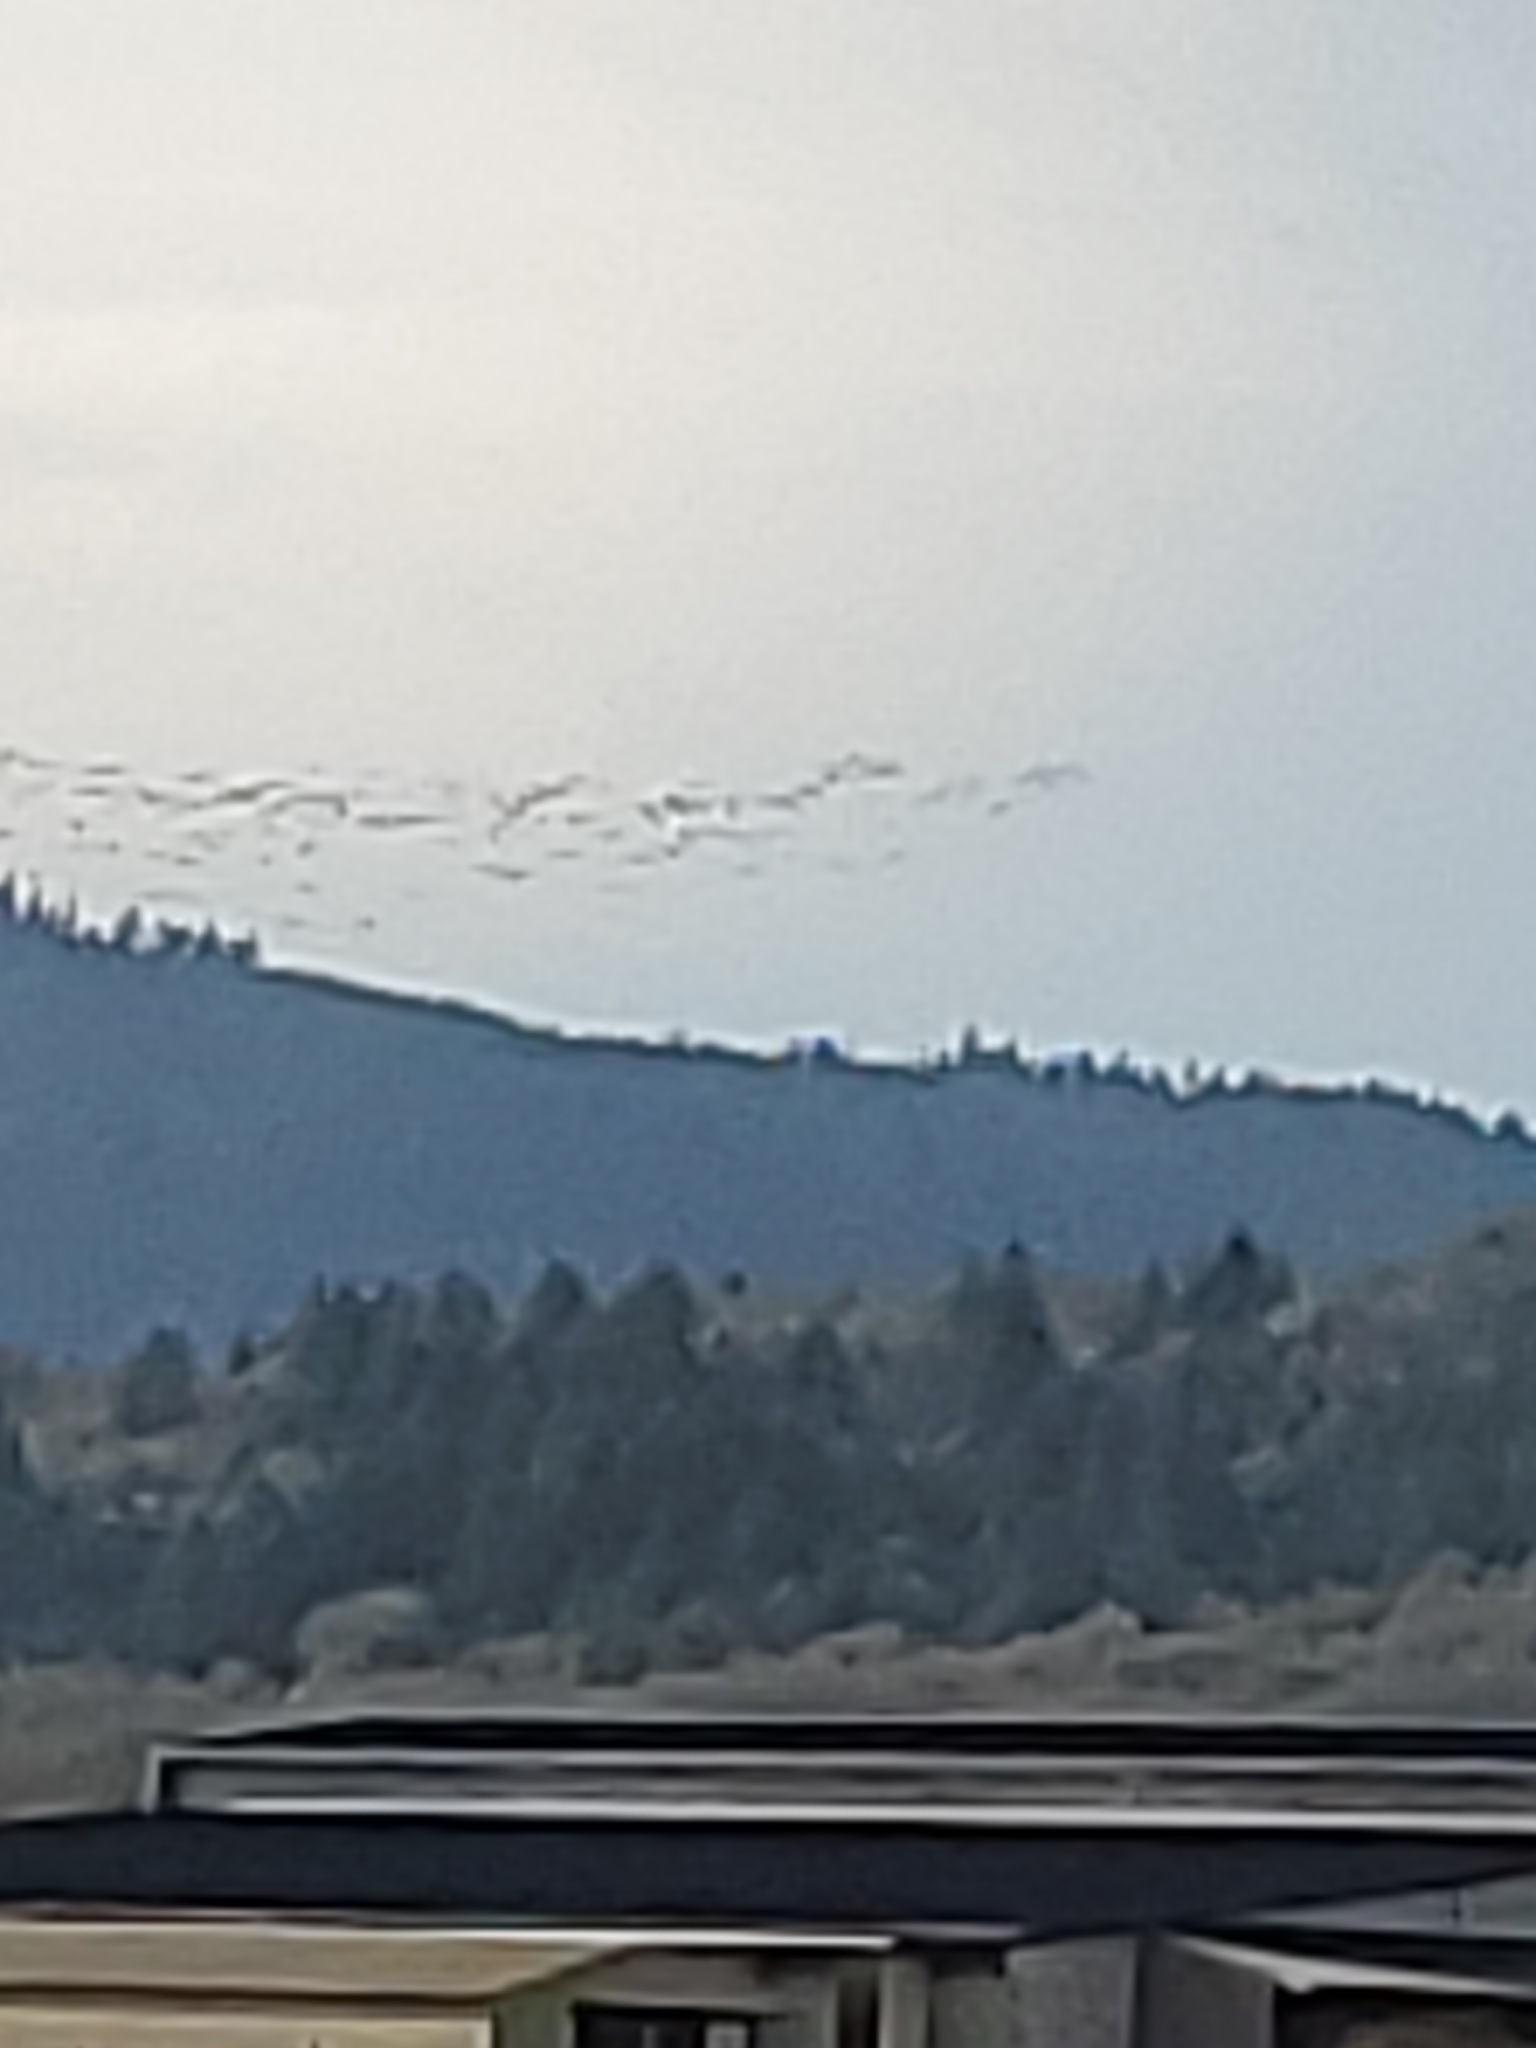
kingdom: Animalia
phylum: Chordata
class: Aves
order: Anseriformes
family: Anatidae
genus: Branta
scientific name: Branta canadensis
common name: Canada goose
